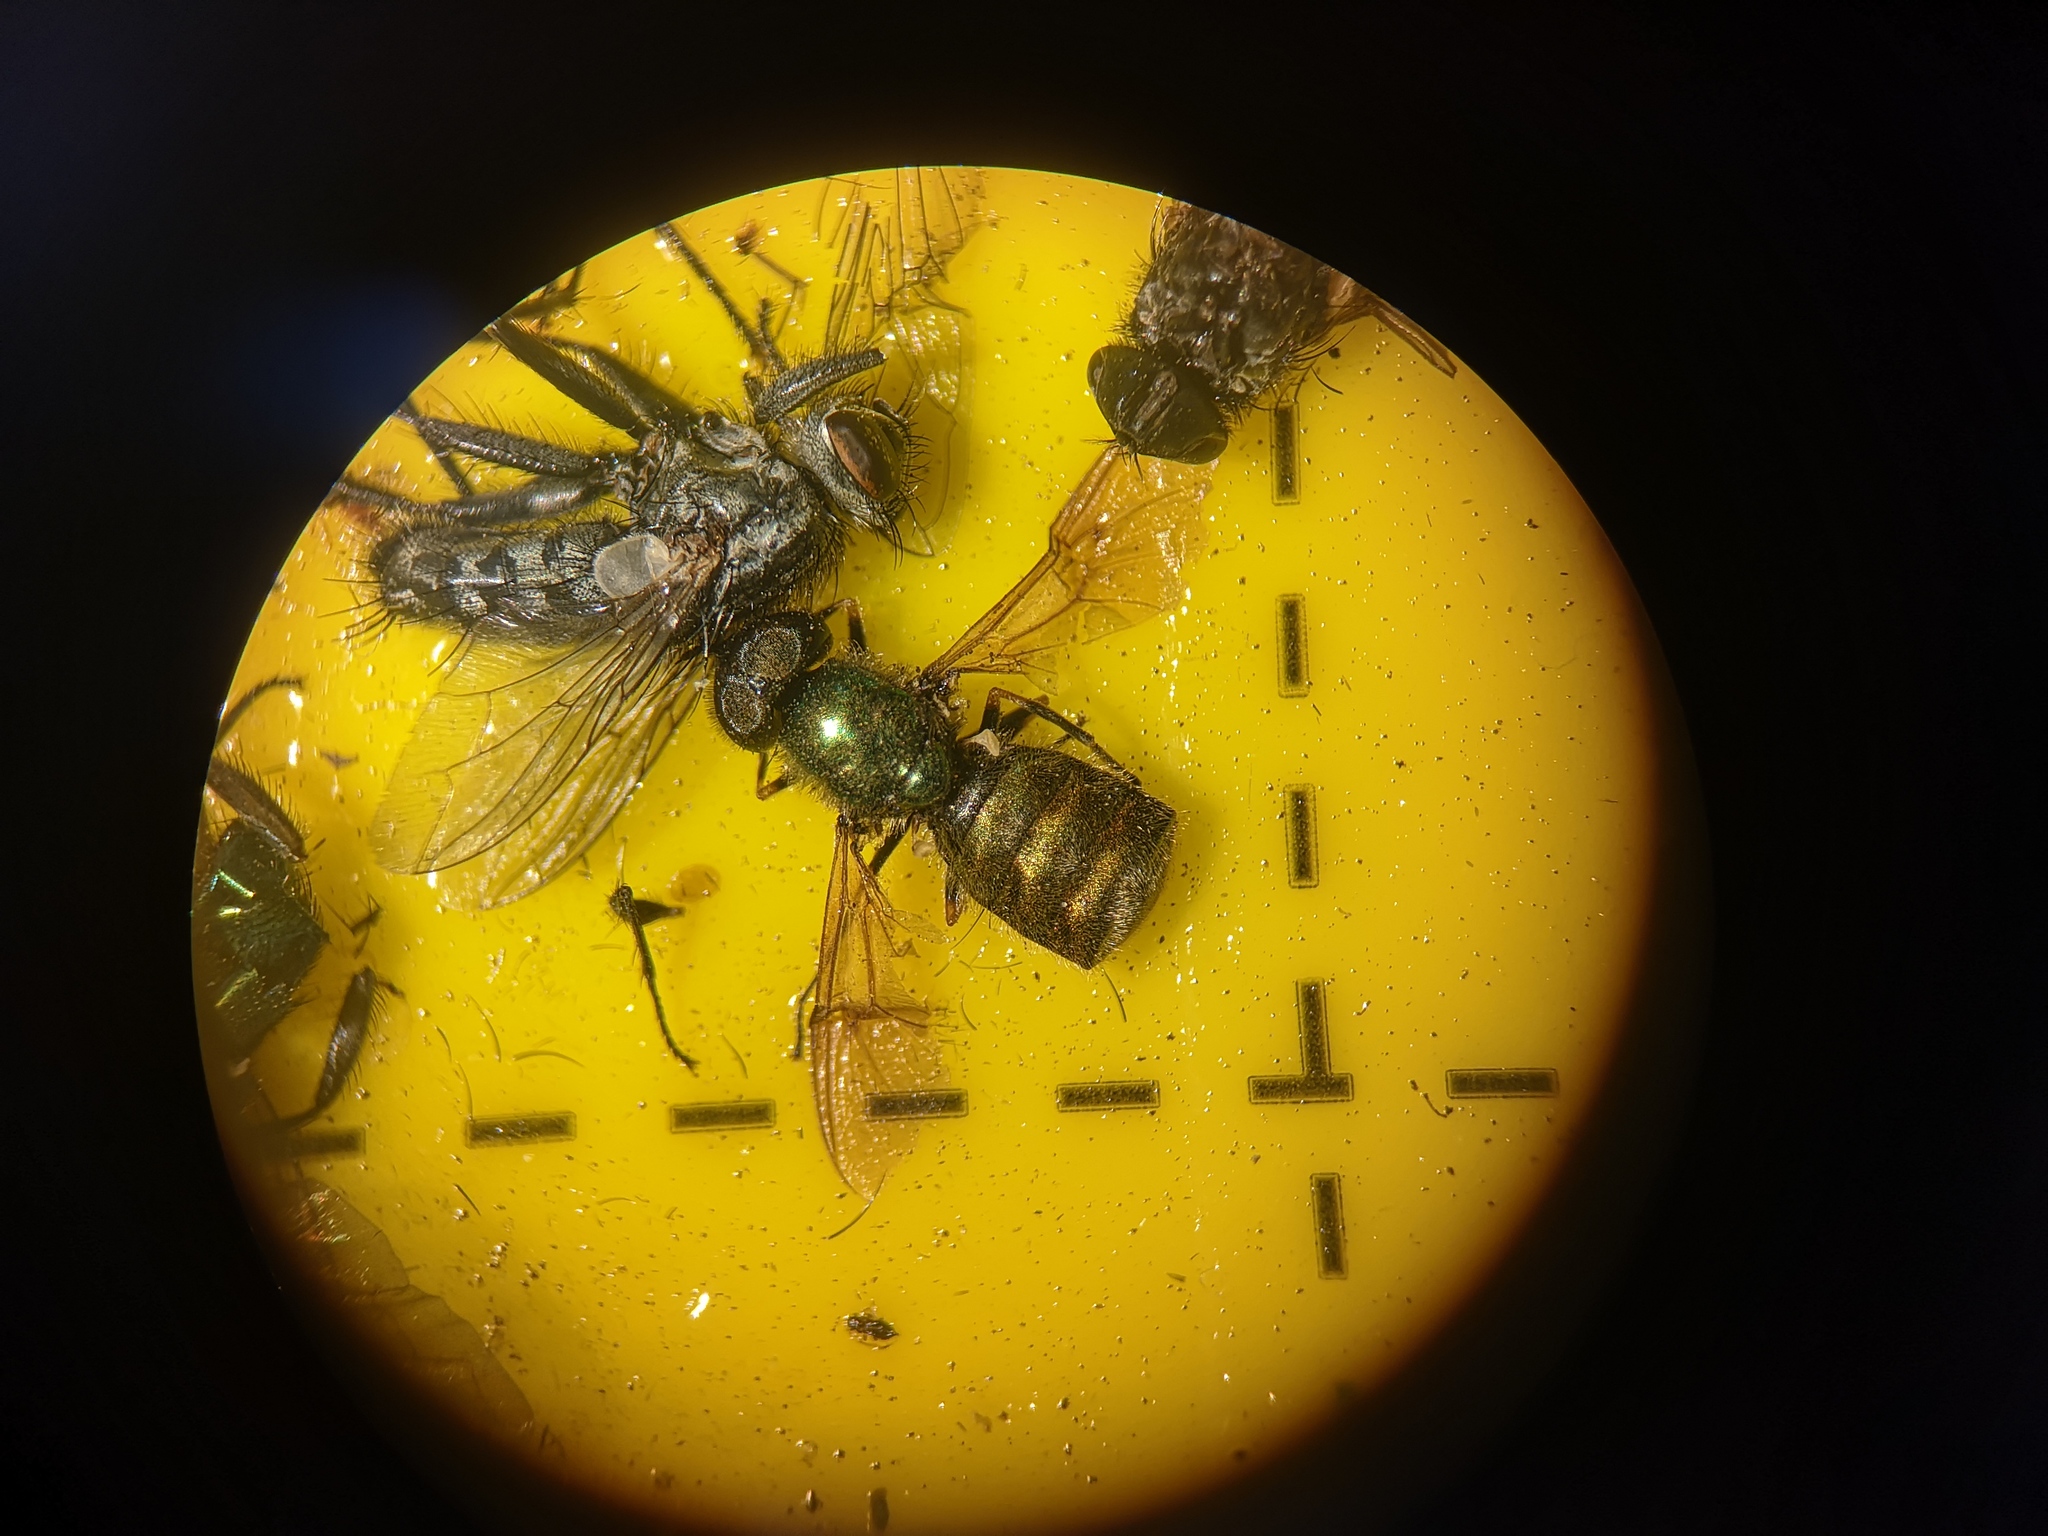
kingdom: Animalia
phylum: Arthropoda
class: Insecta
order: Diptera
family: Stratiomyidae
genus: Chloromyia
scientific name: Chloromyia formosa
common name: Soldier fly
